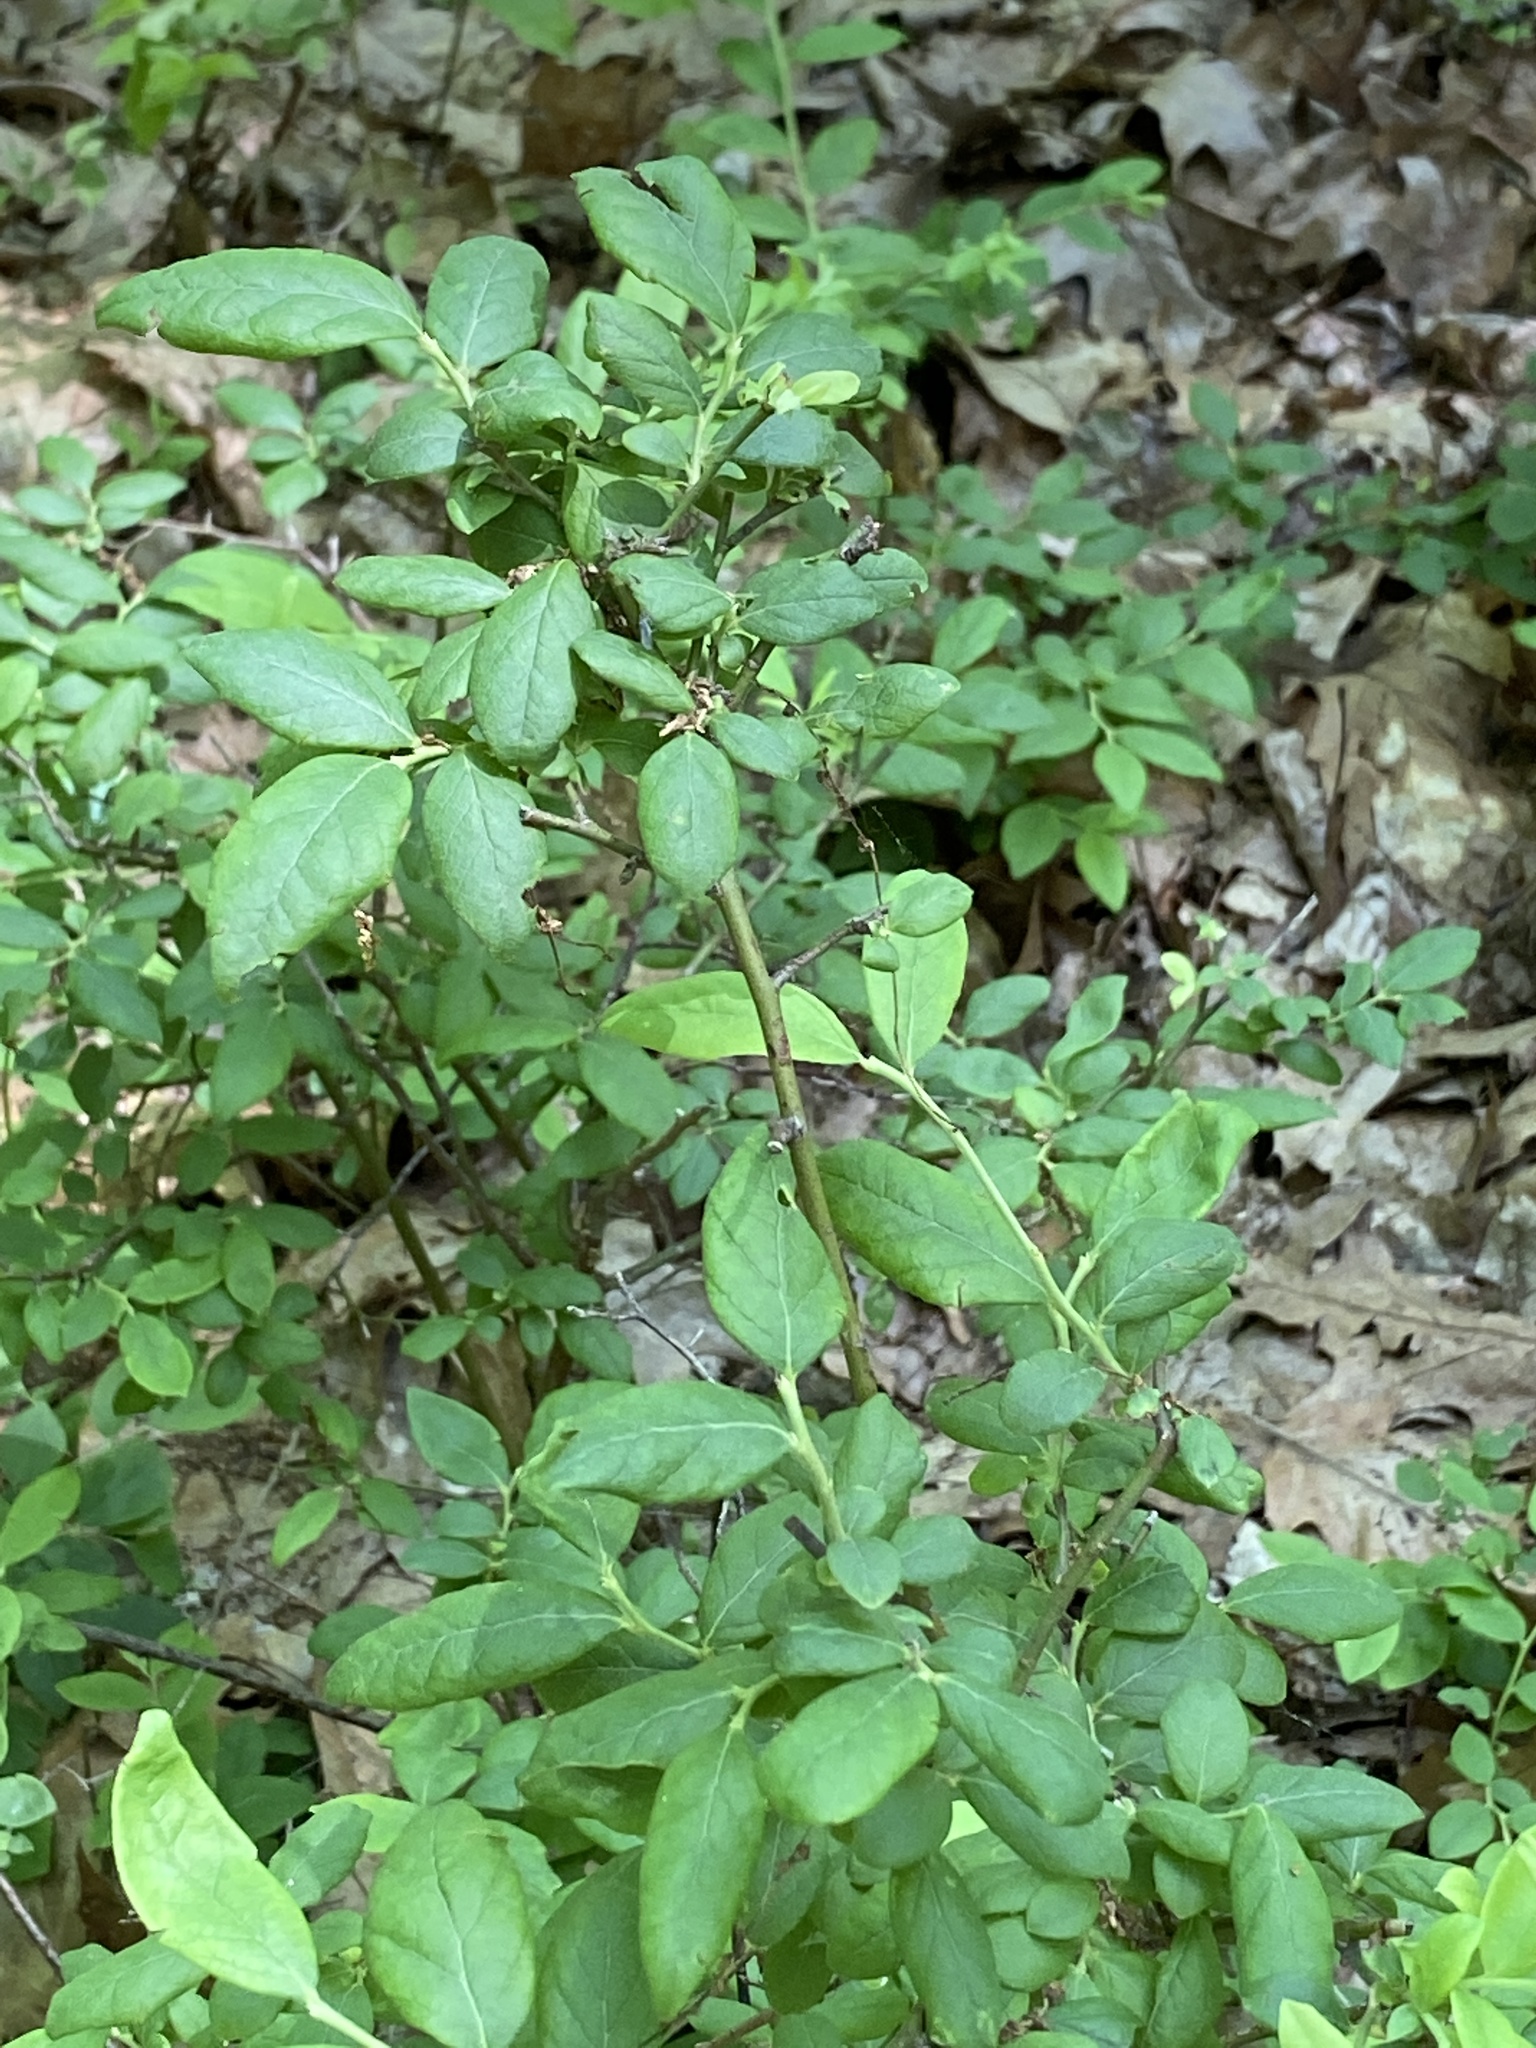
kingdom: Plantae
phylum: Tracheophyta
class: Magnoliopsida
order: Ericales
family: Ericaceae
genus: Vaccinium
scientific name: Vaccinium corymbosum
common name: Blueberry
